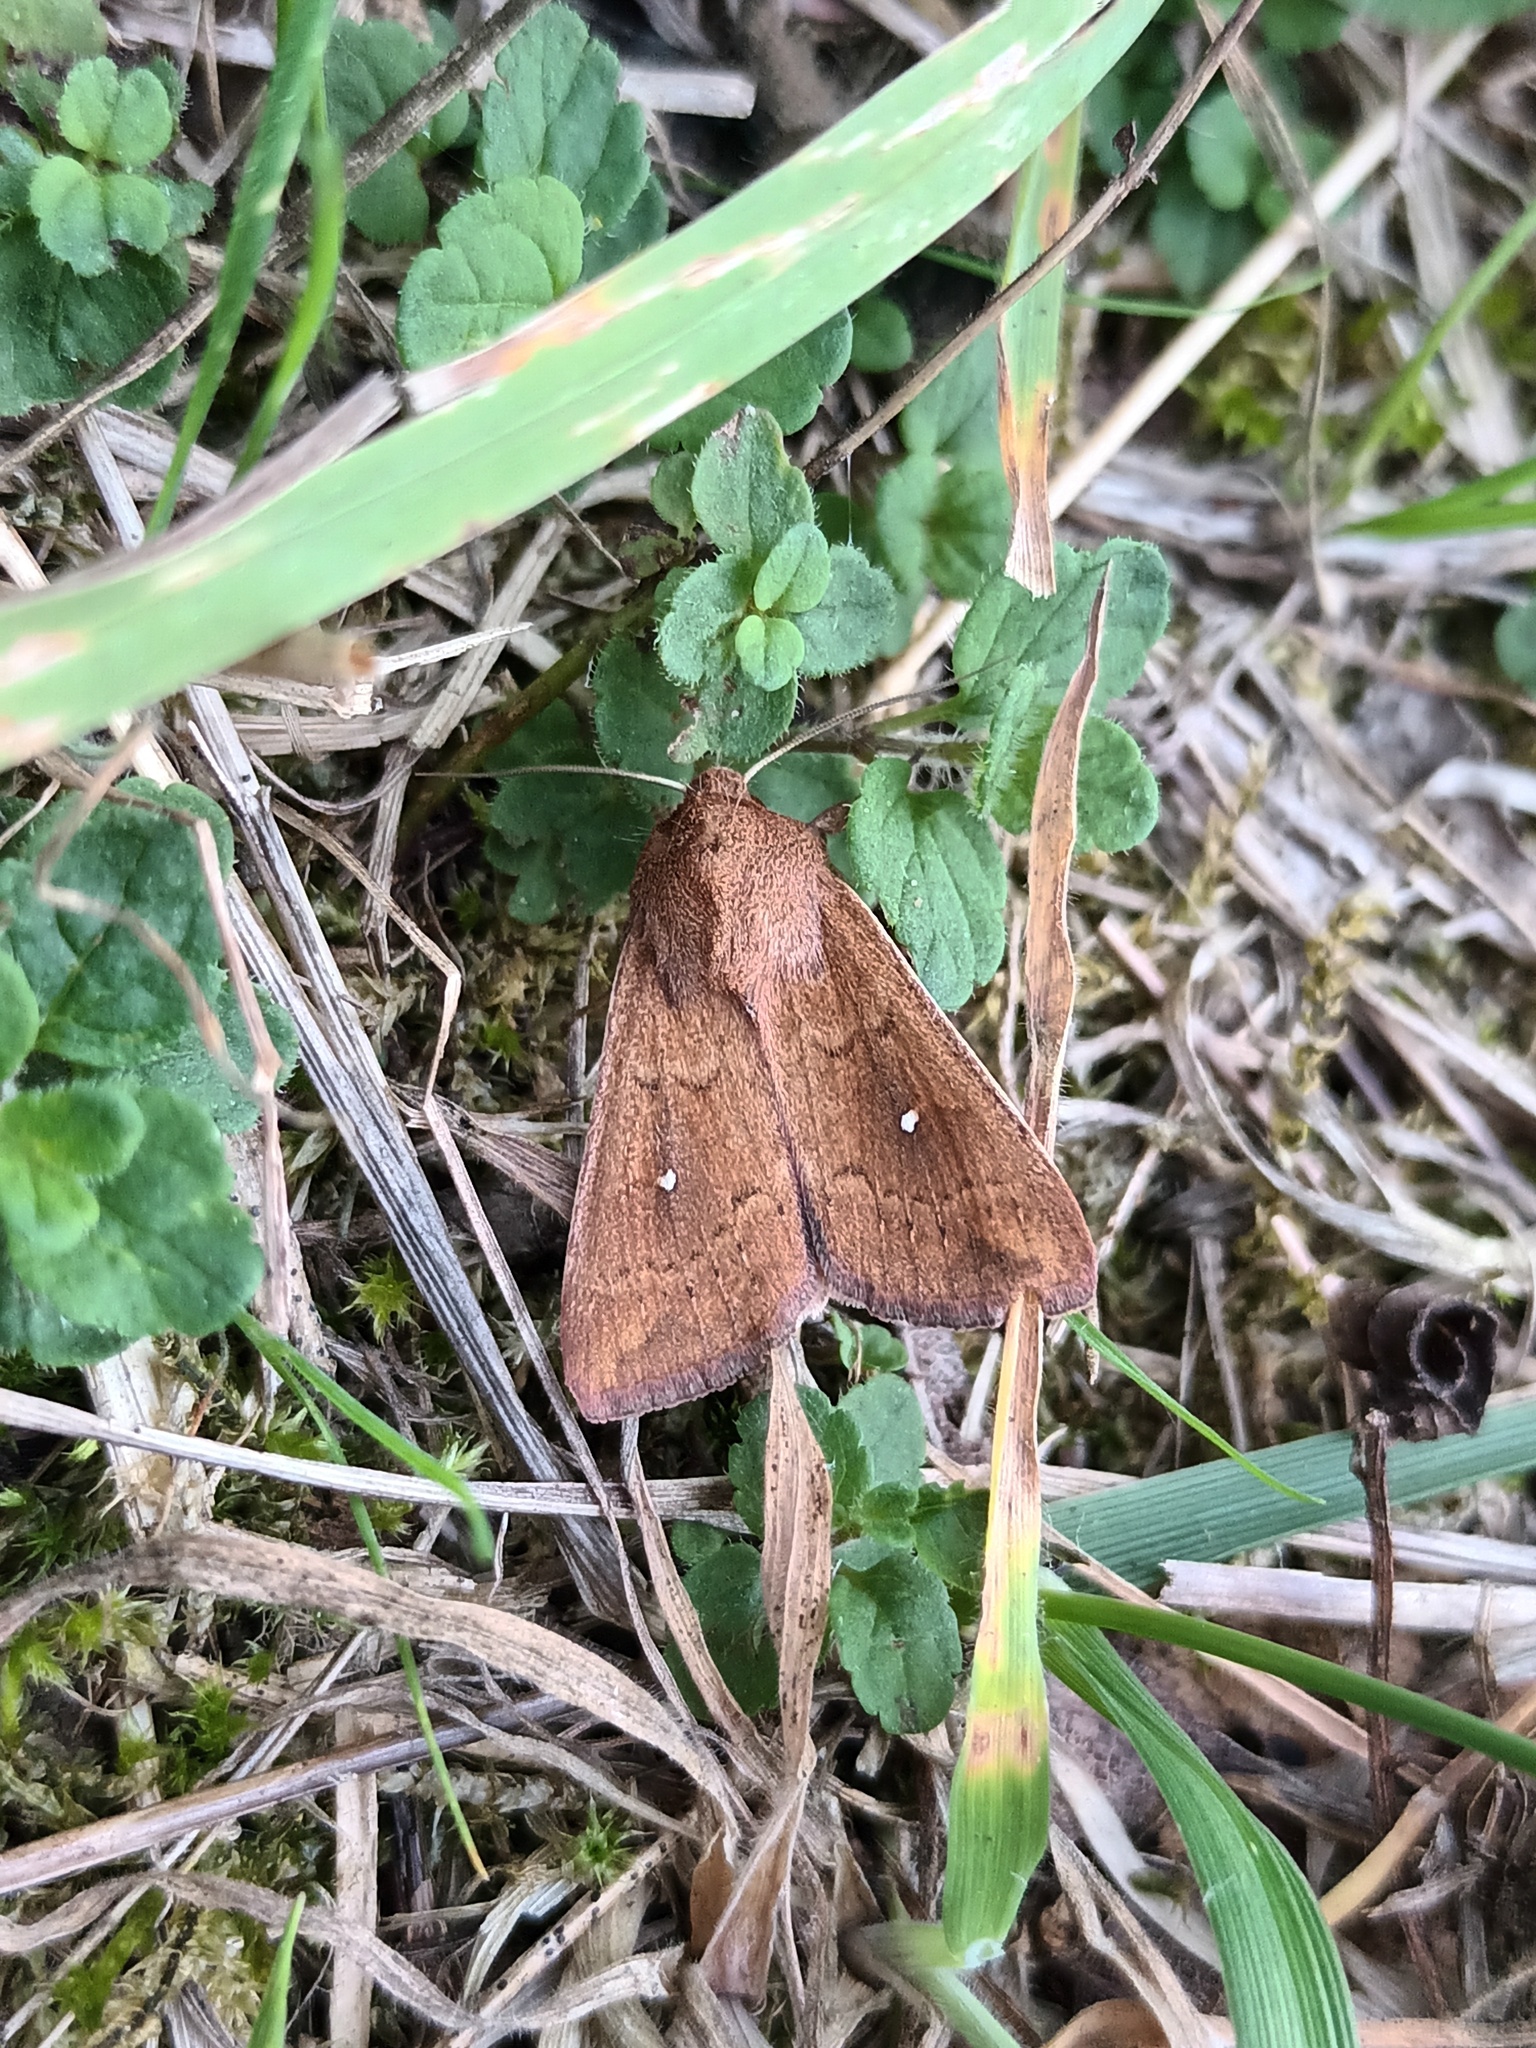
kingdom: Animalia
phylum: Arthropoda
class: Insecta
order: Lepidoptera
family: Noctuidae
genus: Mythimna
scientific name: Mythimna albipuncta
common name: White-point
